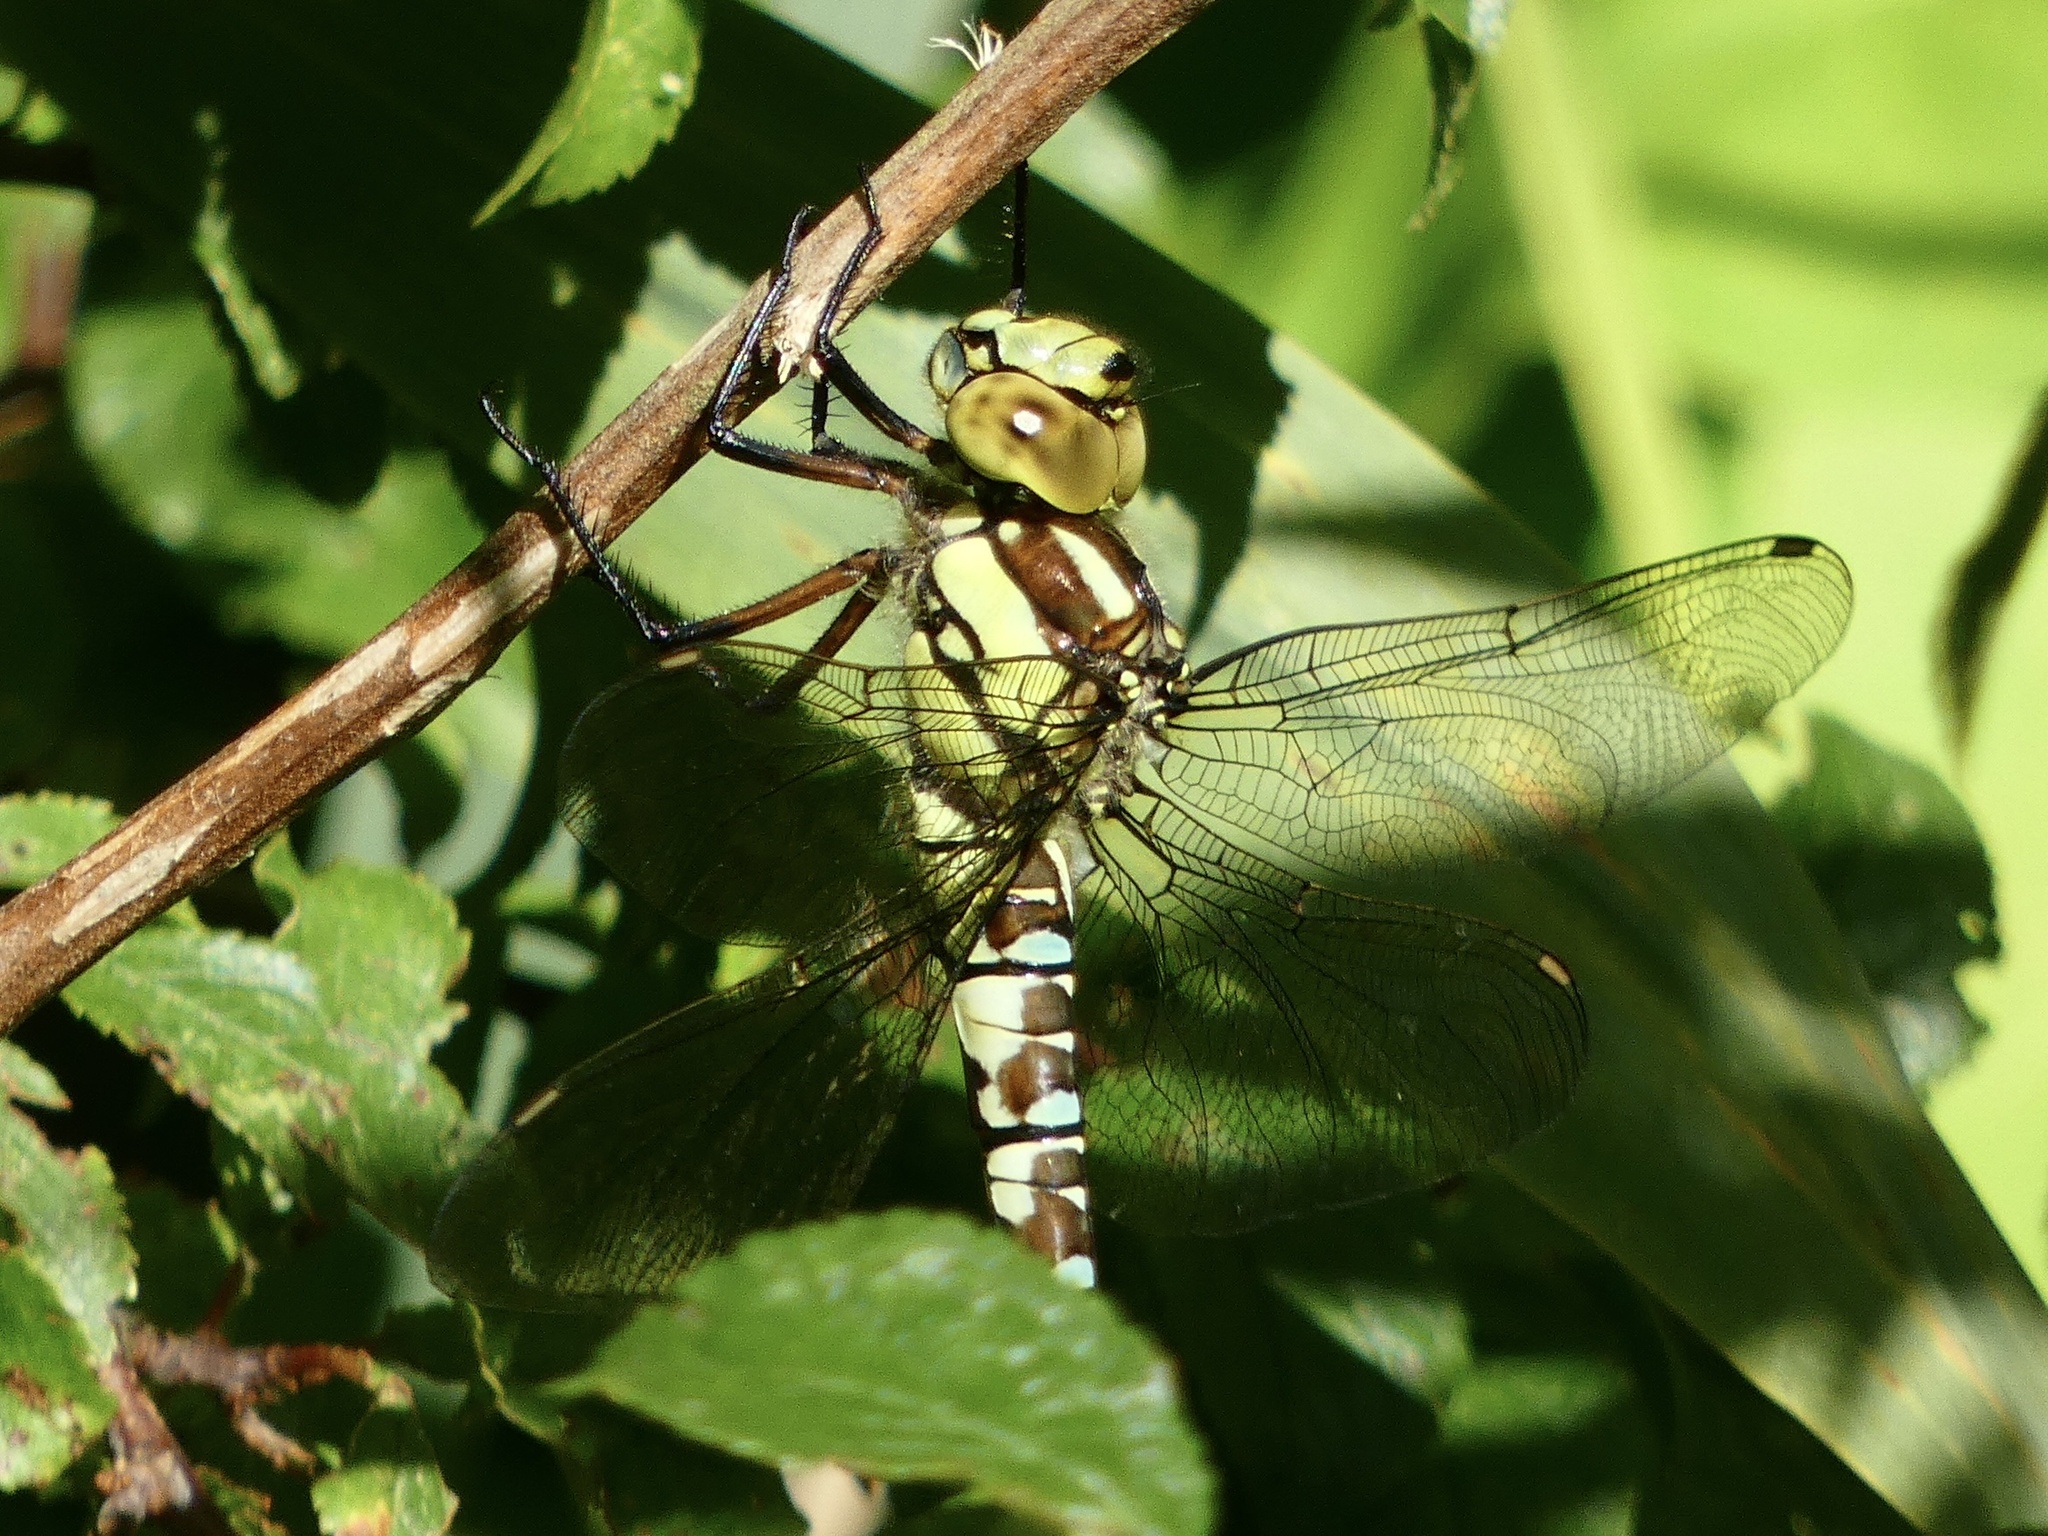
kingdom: Animalia
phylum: Arthropoda
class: Insecta
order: Odonata
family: Aeshnidae
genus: Aeshna
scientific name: Aeshna cyanea
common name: Southern hawker
